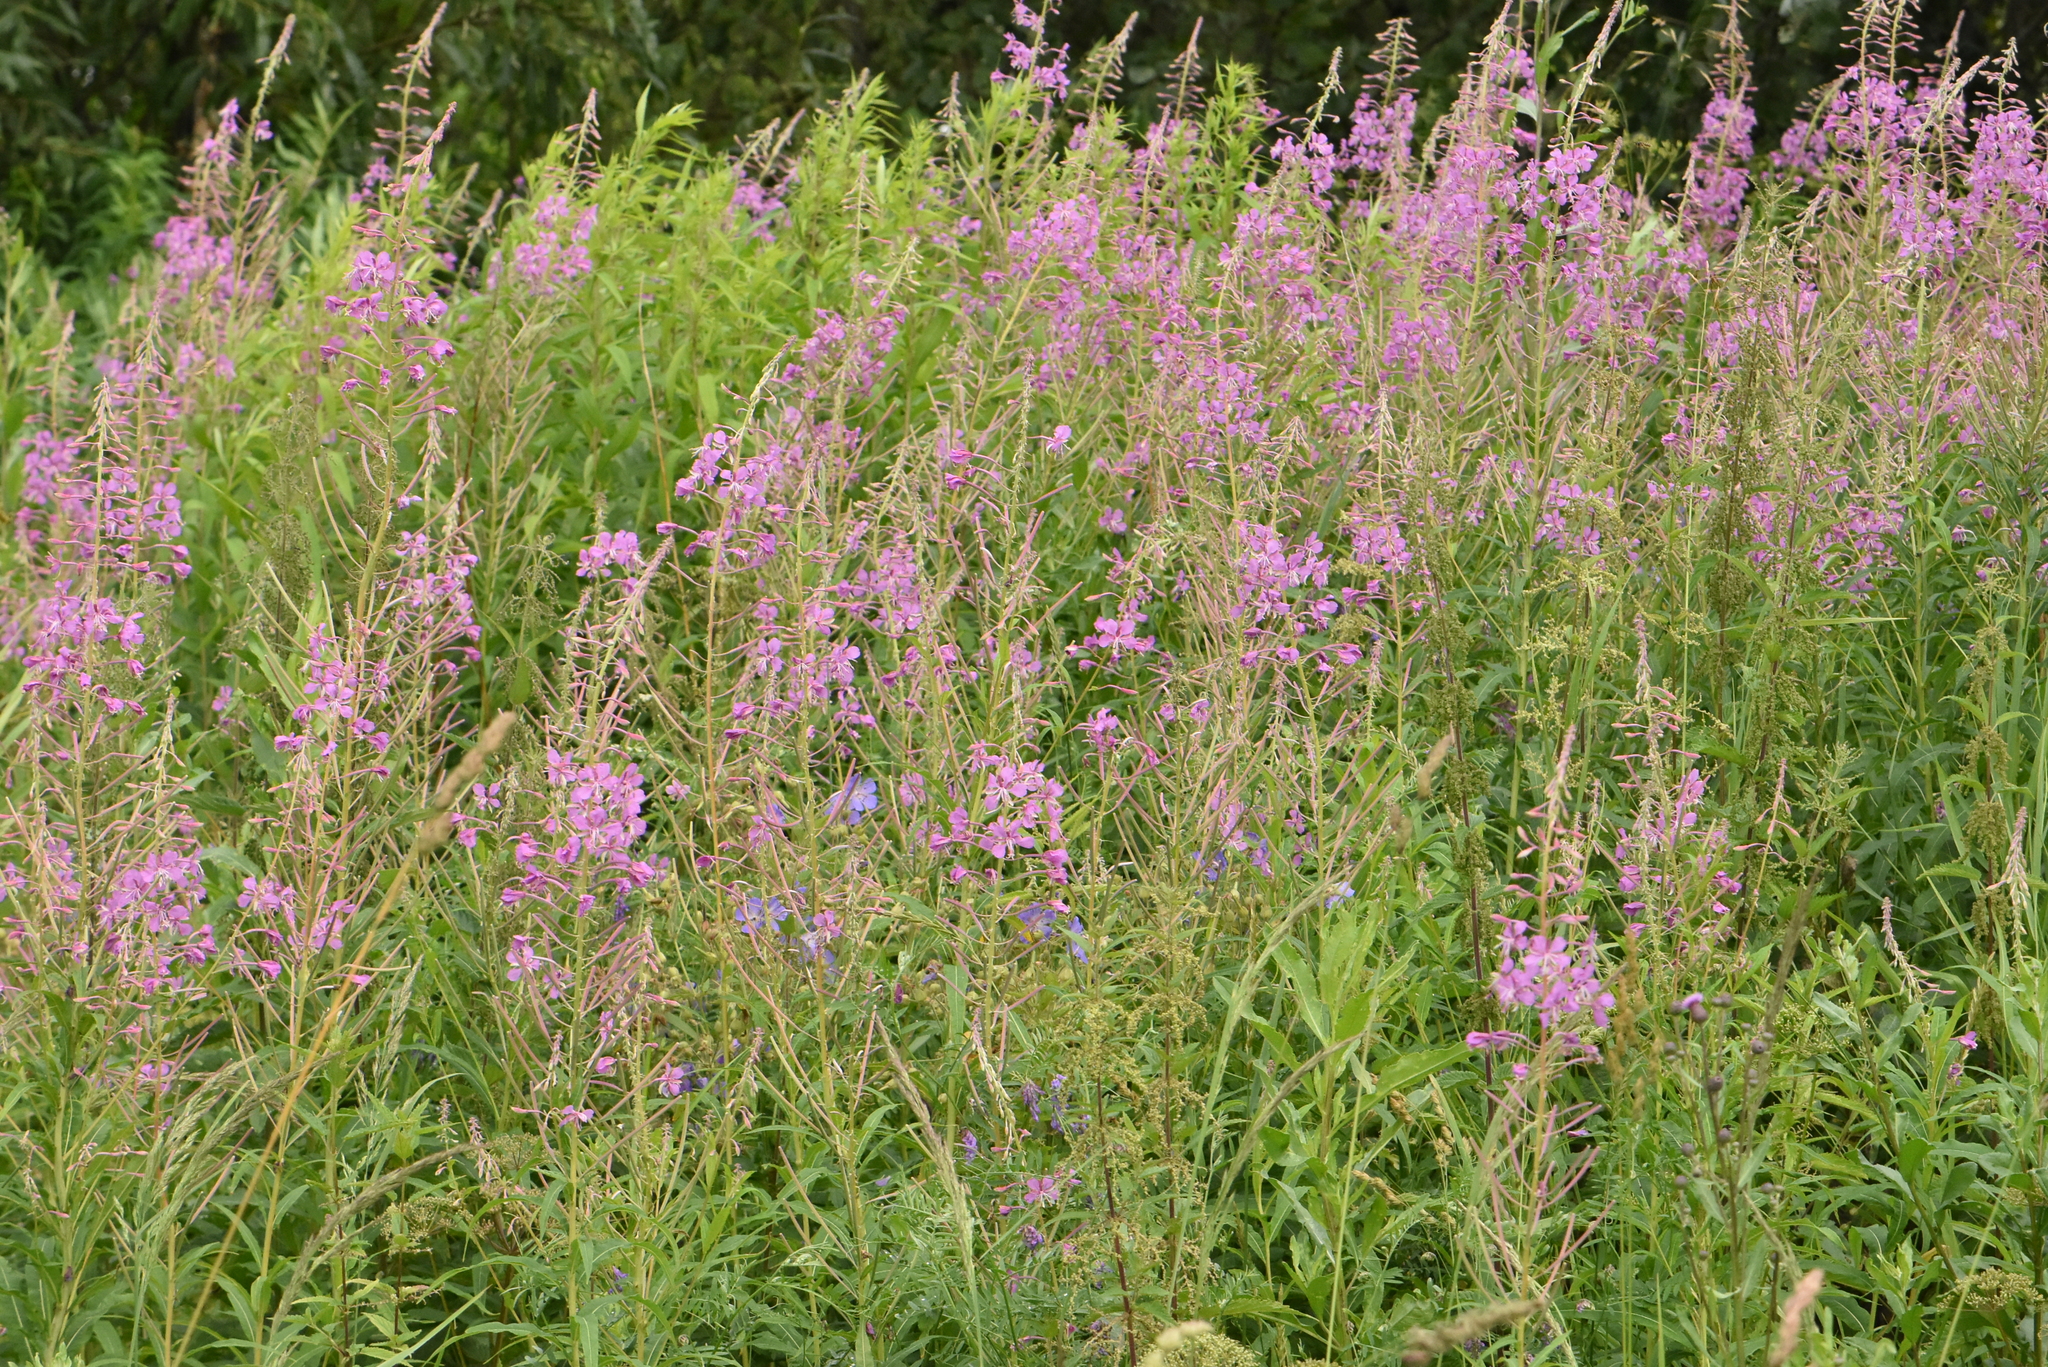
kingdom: Plantae
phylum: Tracheophyta
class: Magnoliopsida
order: Myrtales
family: Onagraceae
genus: Chamaenerion
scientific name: Chamaenerion angustifolium
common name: Fireweed
